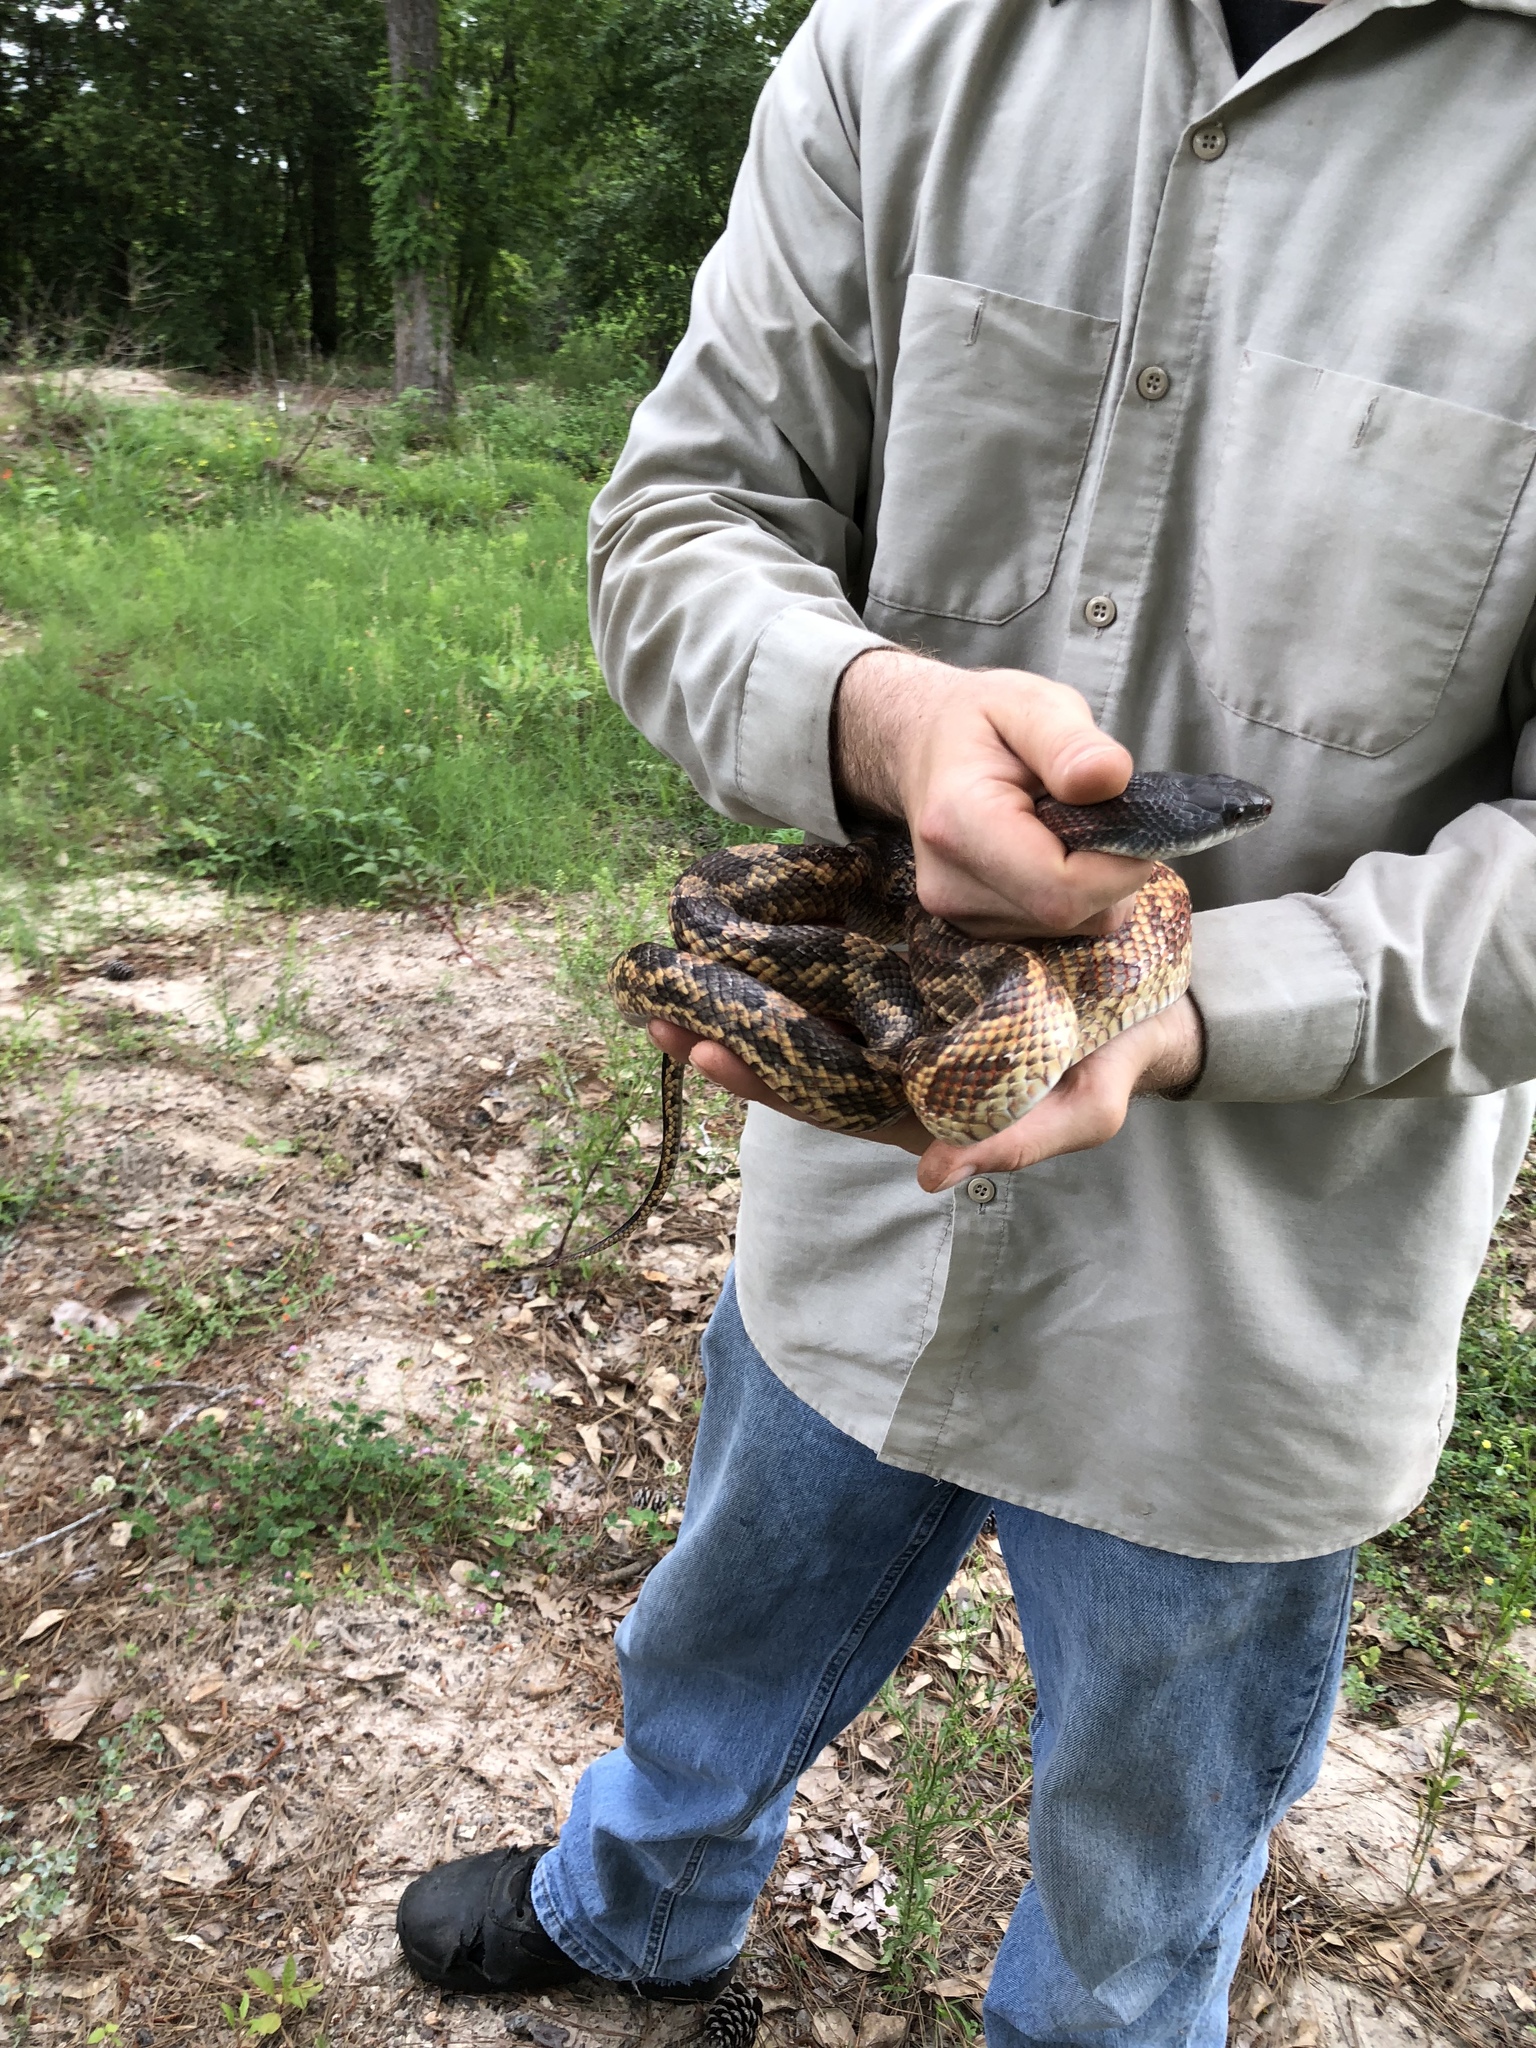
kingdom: Animalia
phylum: Chordata
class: Squamata
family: Colubridae
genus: Pantherophis
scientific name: Pantherophis obsoletus
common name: Black rat snake
